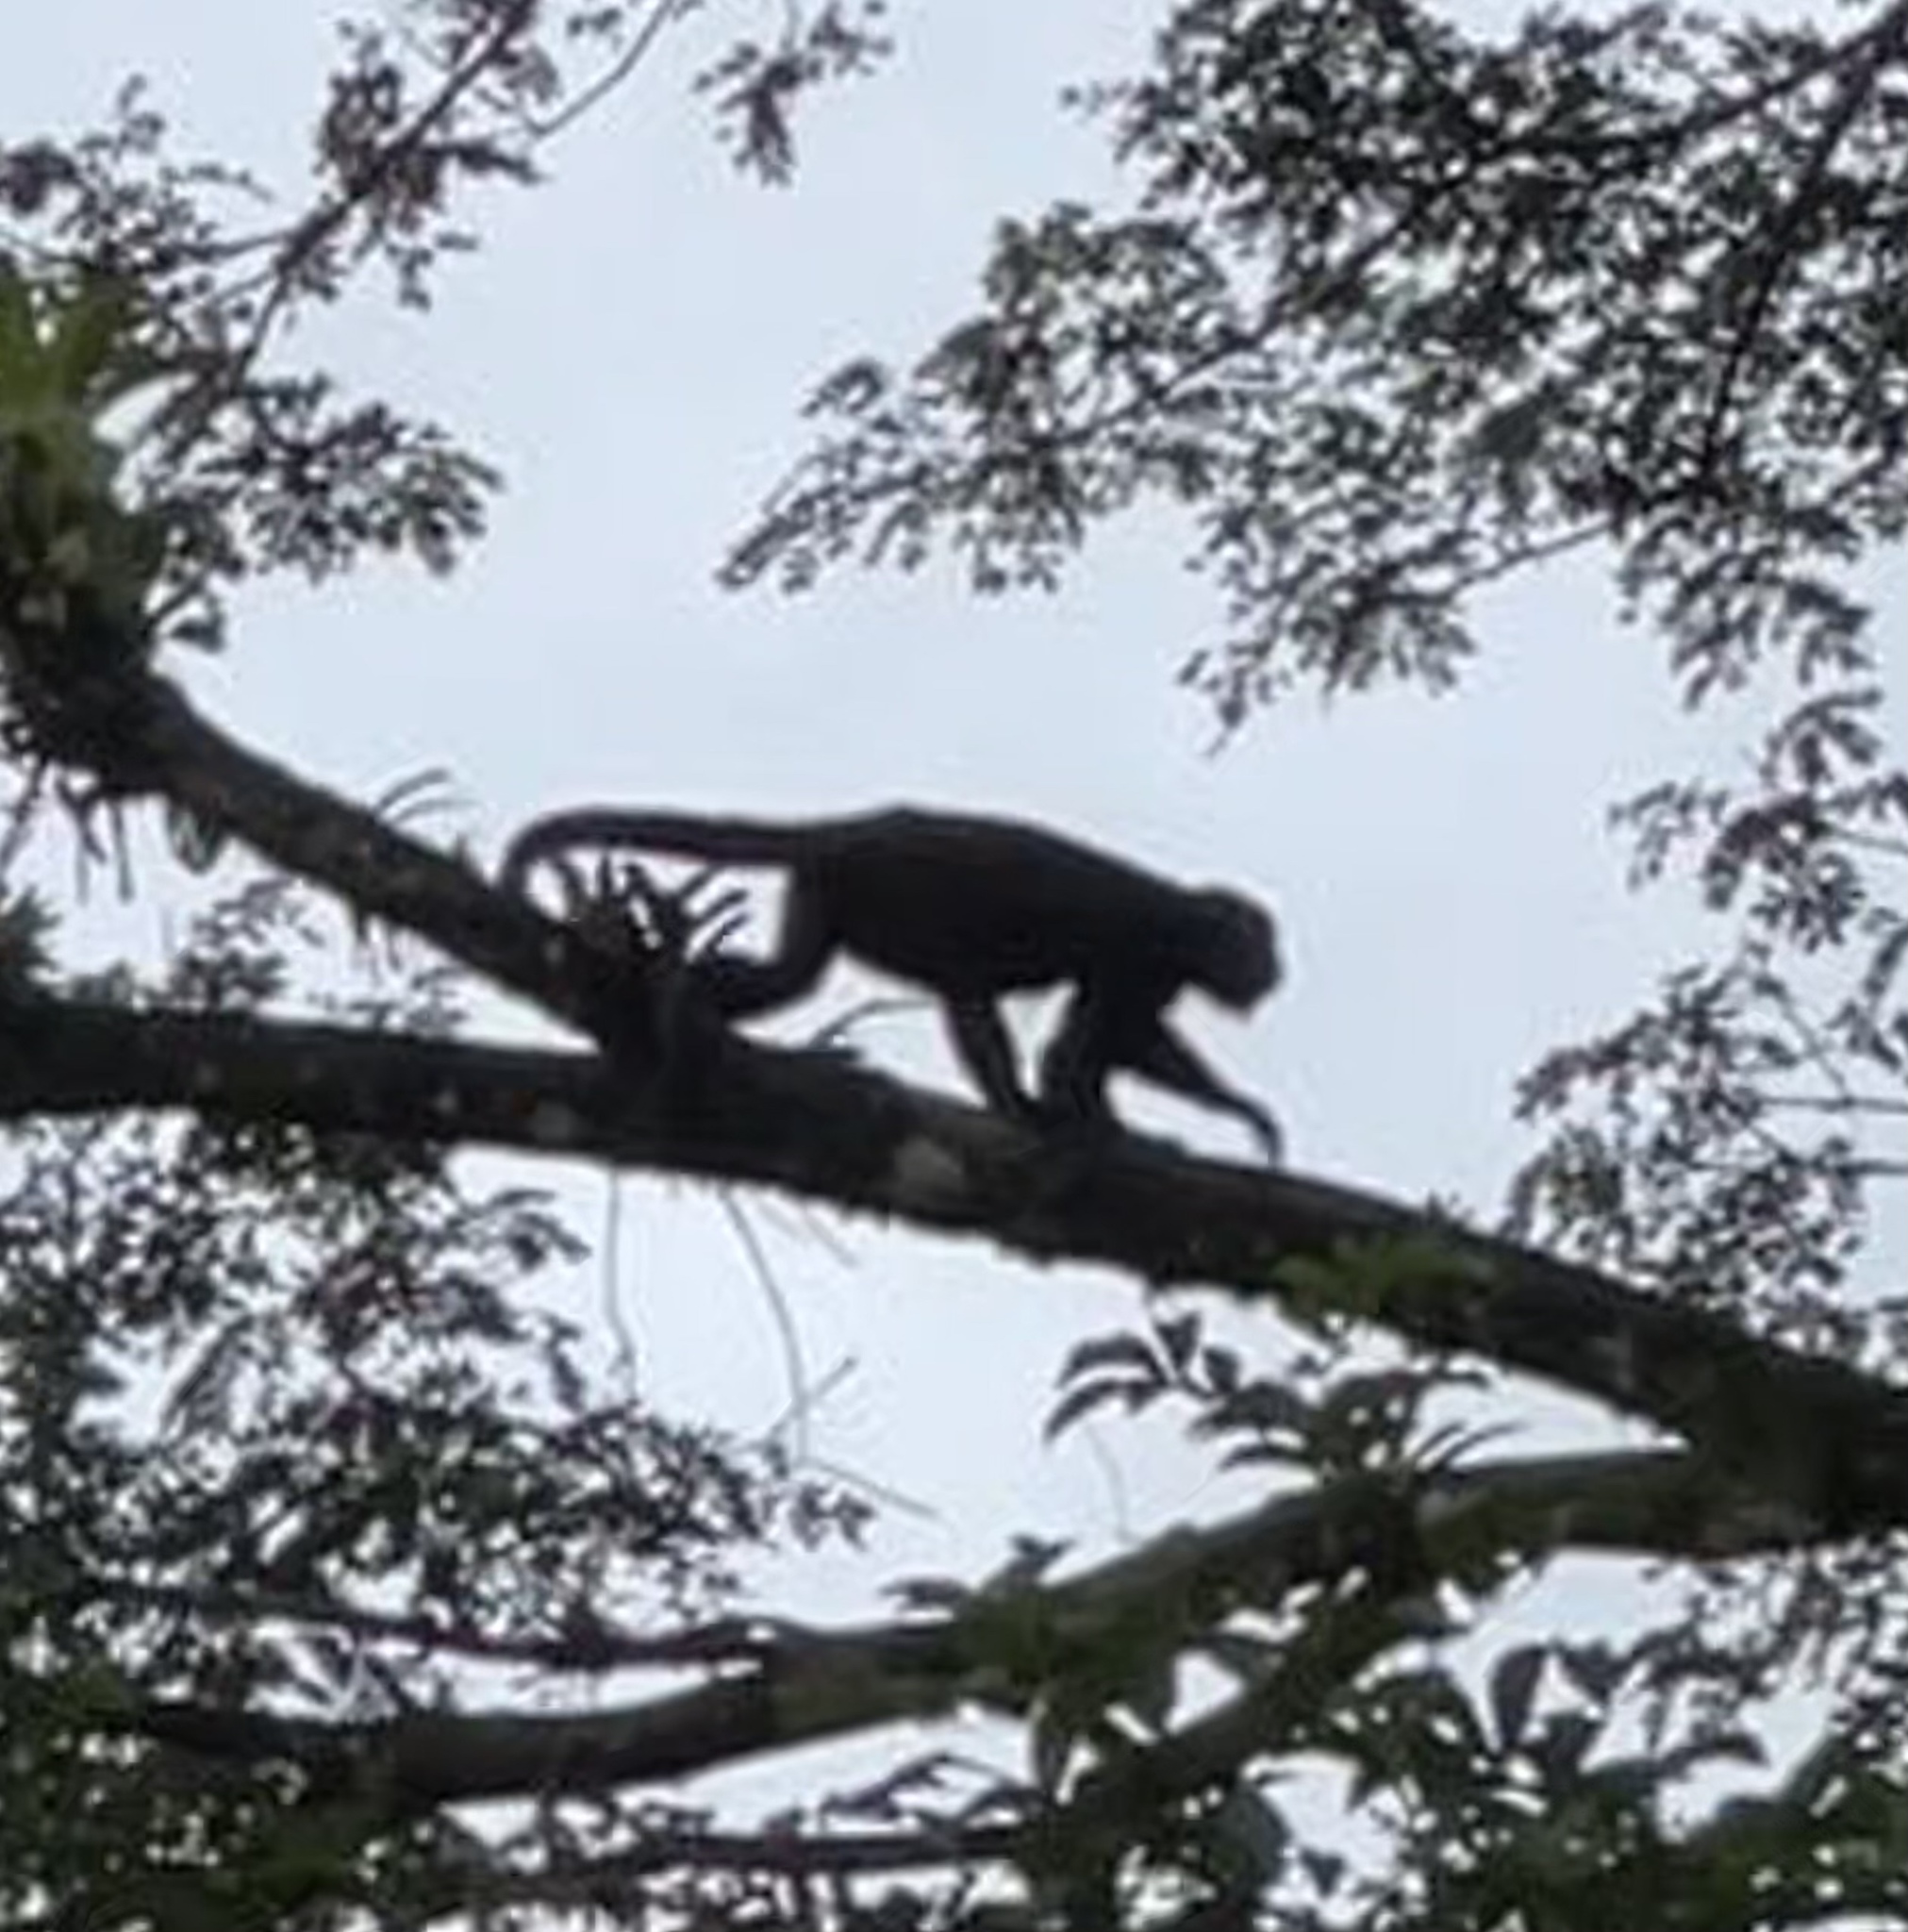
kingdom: Animalia
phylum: Chordata
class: Mammalia
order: Primates
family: Atelidae
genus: Alouatta
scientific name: Alouatta palliata
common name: Mantled howler
